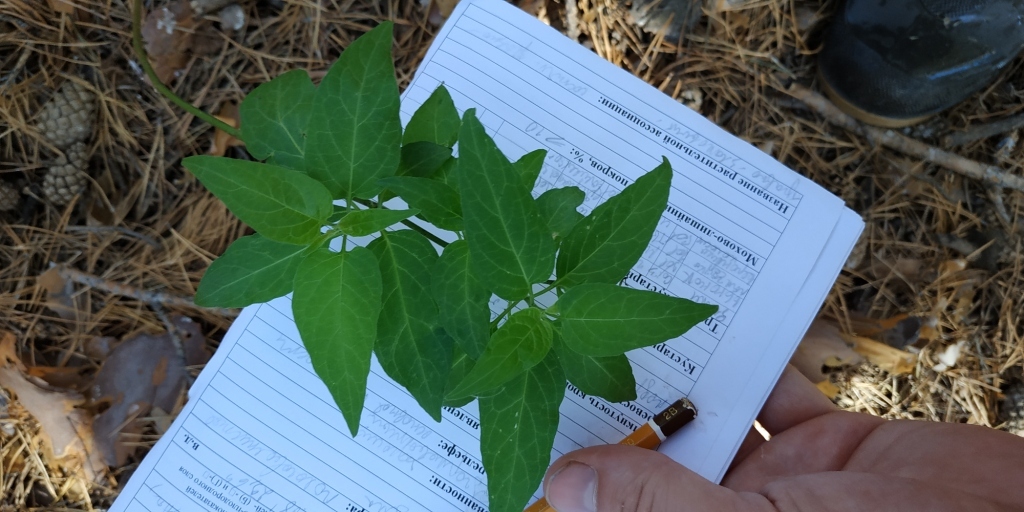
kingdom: Plantae
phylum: Tracheophyta
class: Magnoliopsida
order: Solanales
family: Solanaceae
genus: Solanum
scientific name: Solanum dulcamara
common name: Climbing nightshade
